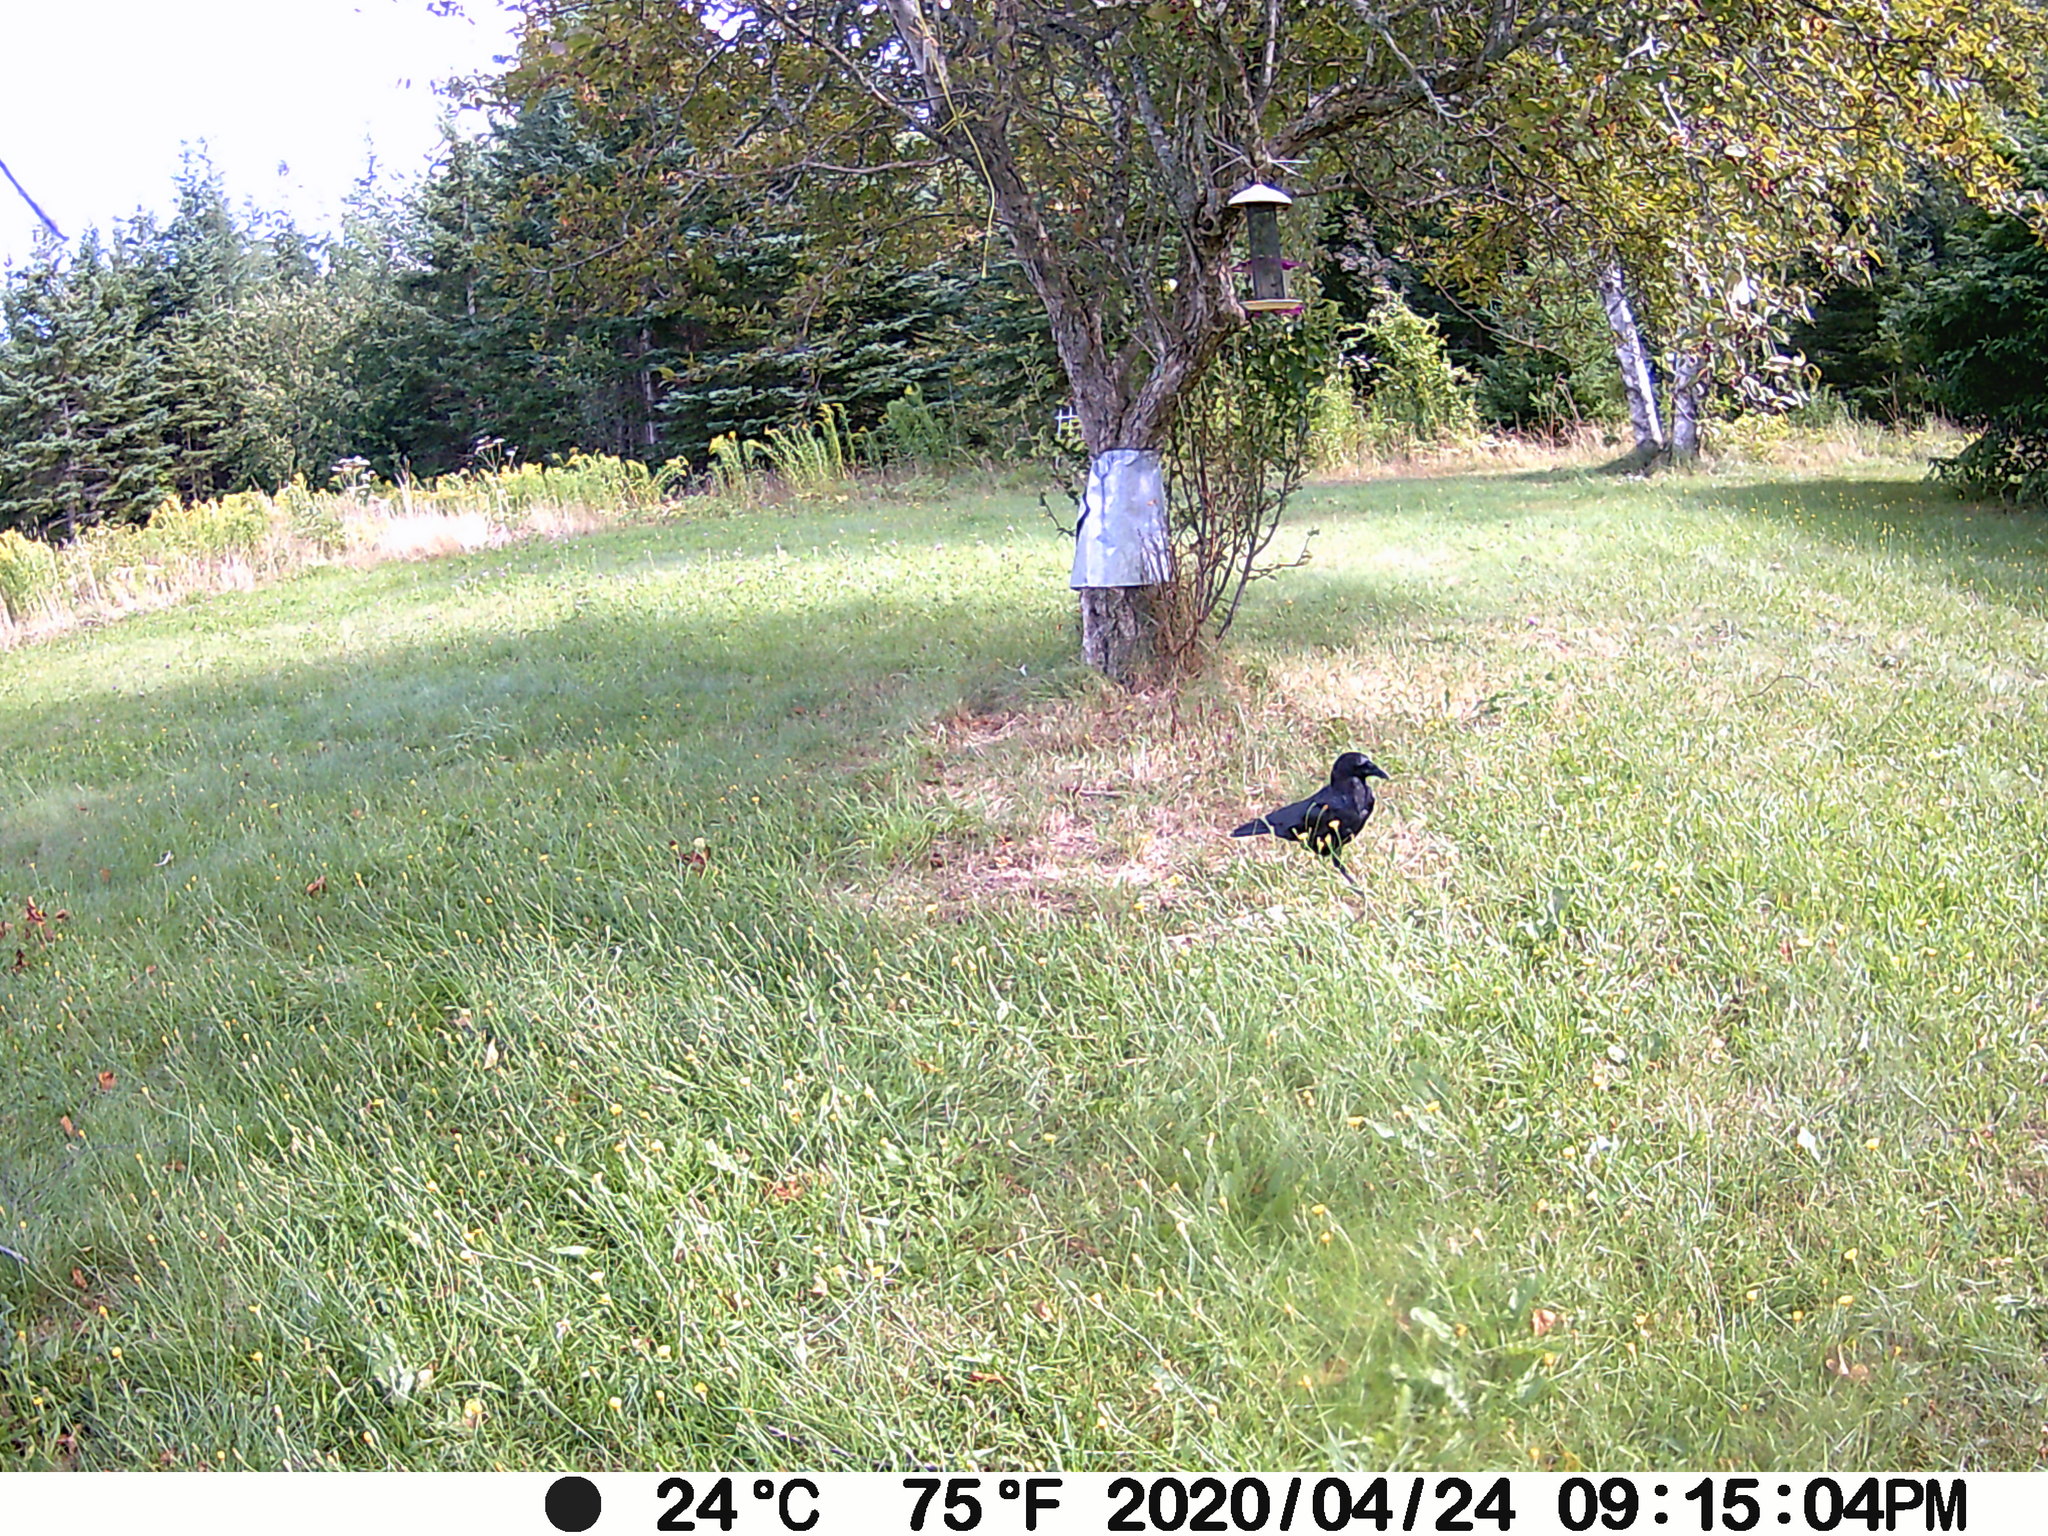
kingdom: Animalia
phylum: Chordata
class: Aves
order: Passeriformes
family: Corvidae
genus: Corvus
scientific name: Corvus brachyrhynchos
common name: American crow
